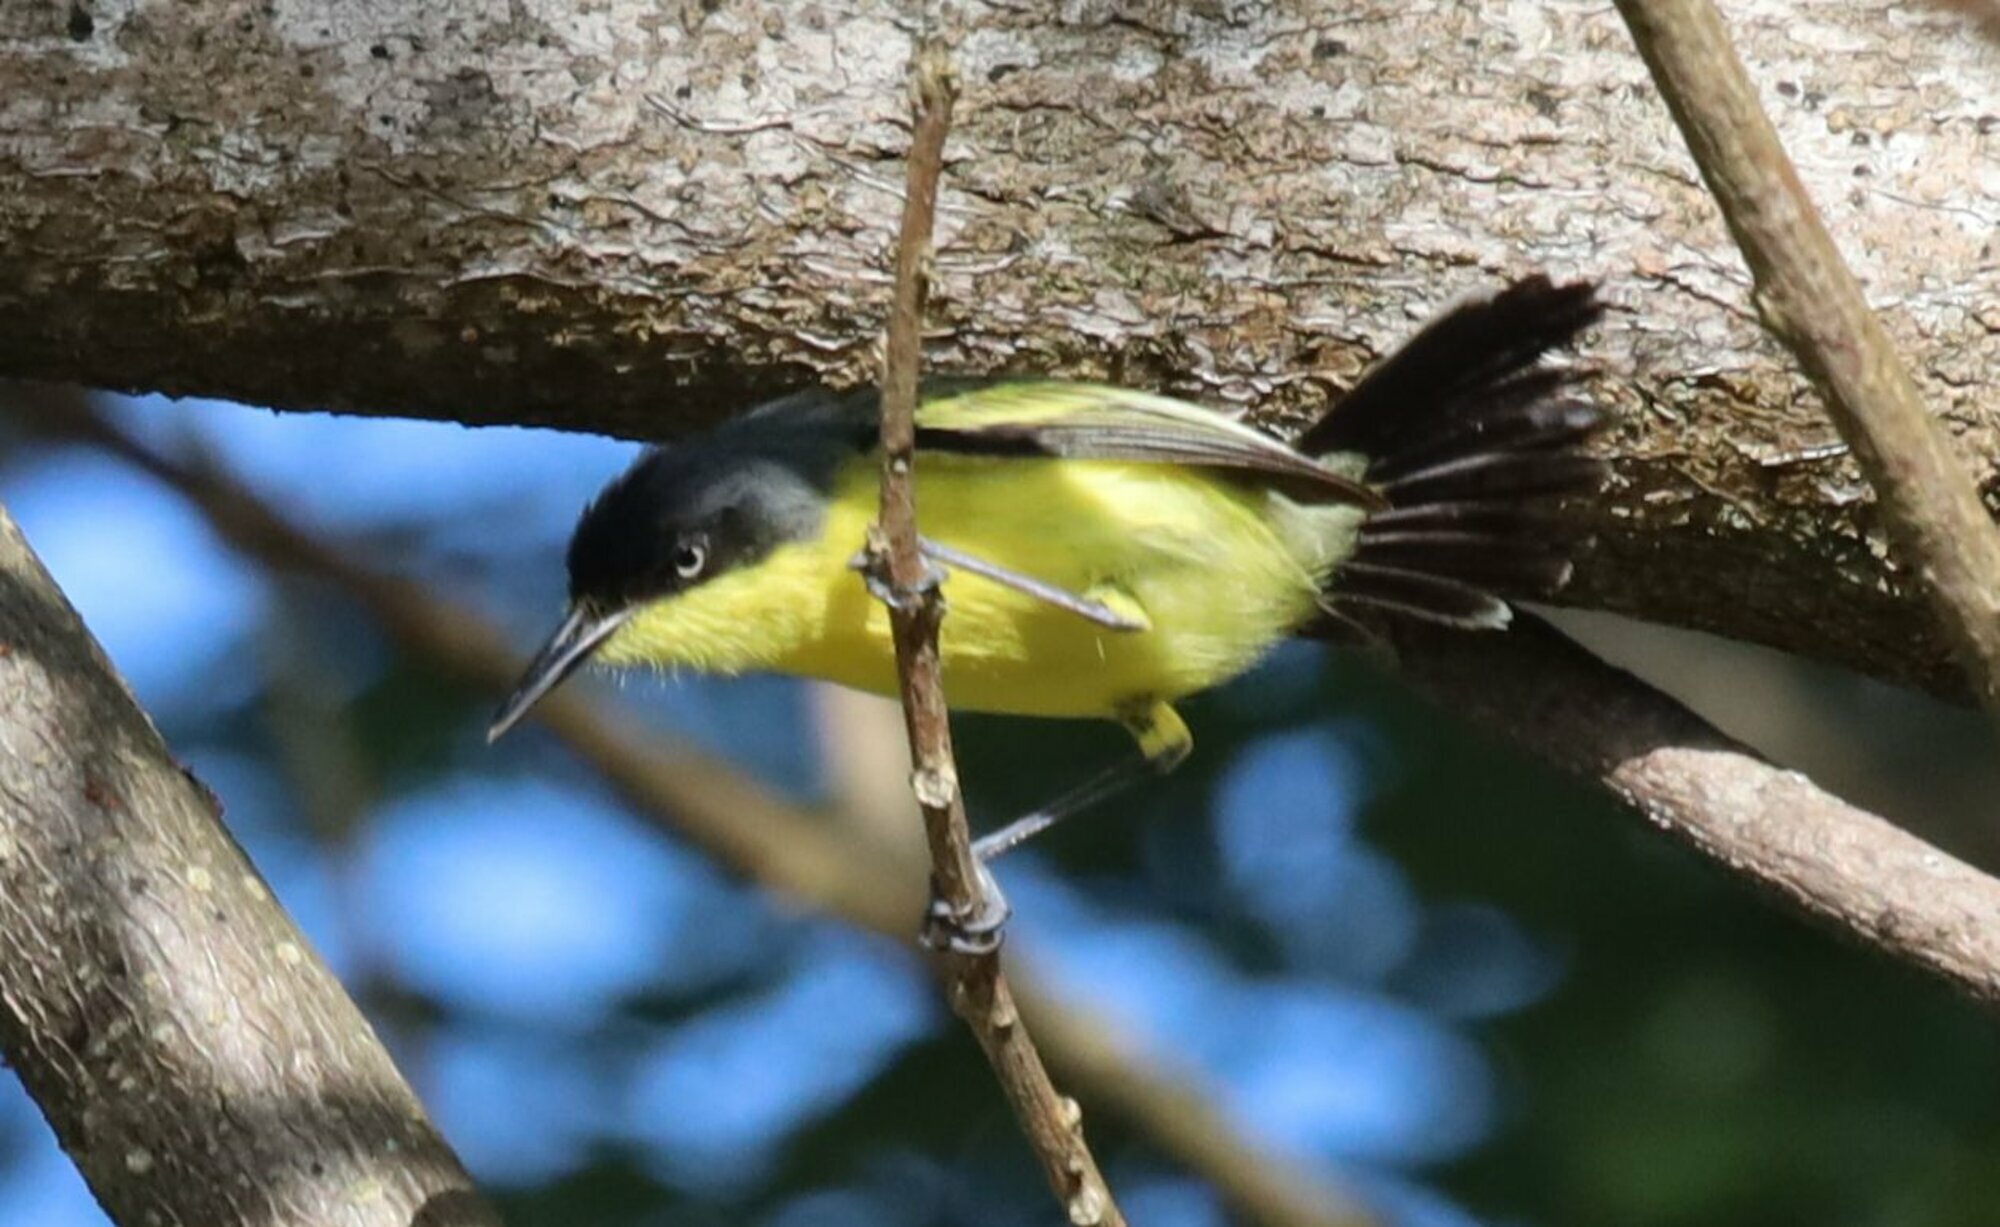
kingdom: Animalia
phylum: Chordata
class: Aves
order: Passeriformes
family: Tyrannidae
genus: Todirostrum
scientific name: Todirostrum cinereum
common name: Common tody-flycatcher
